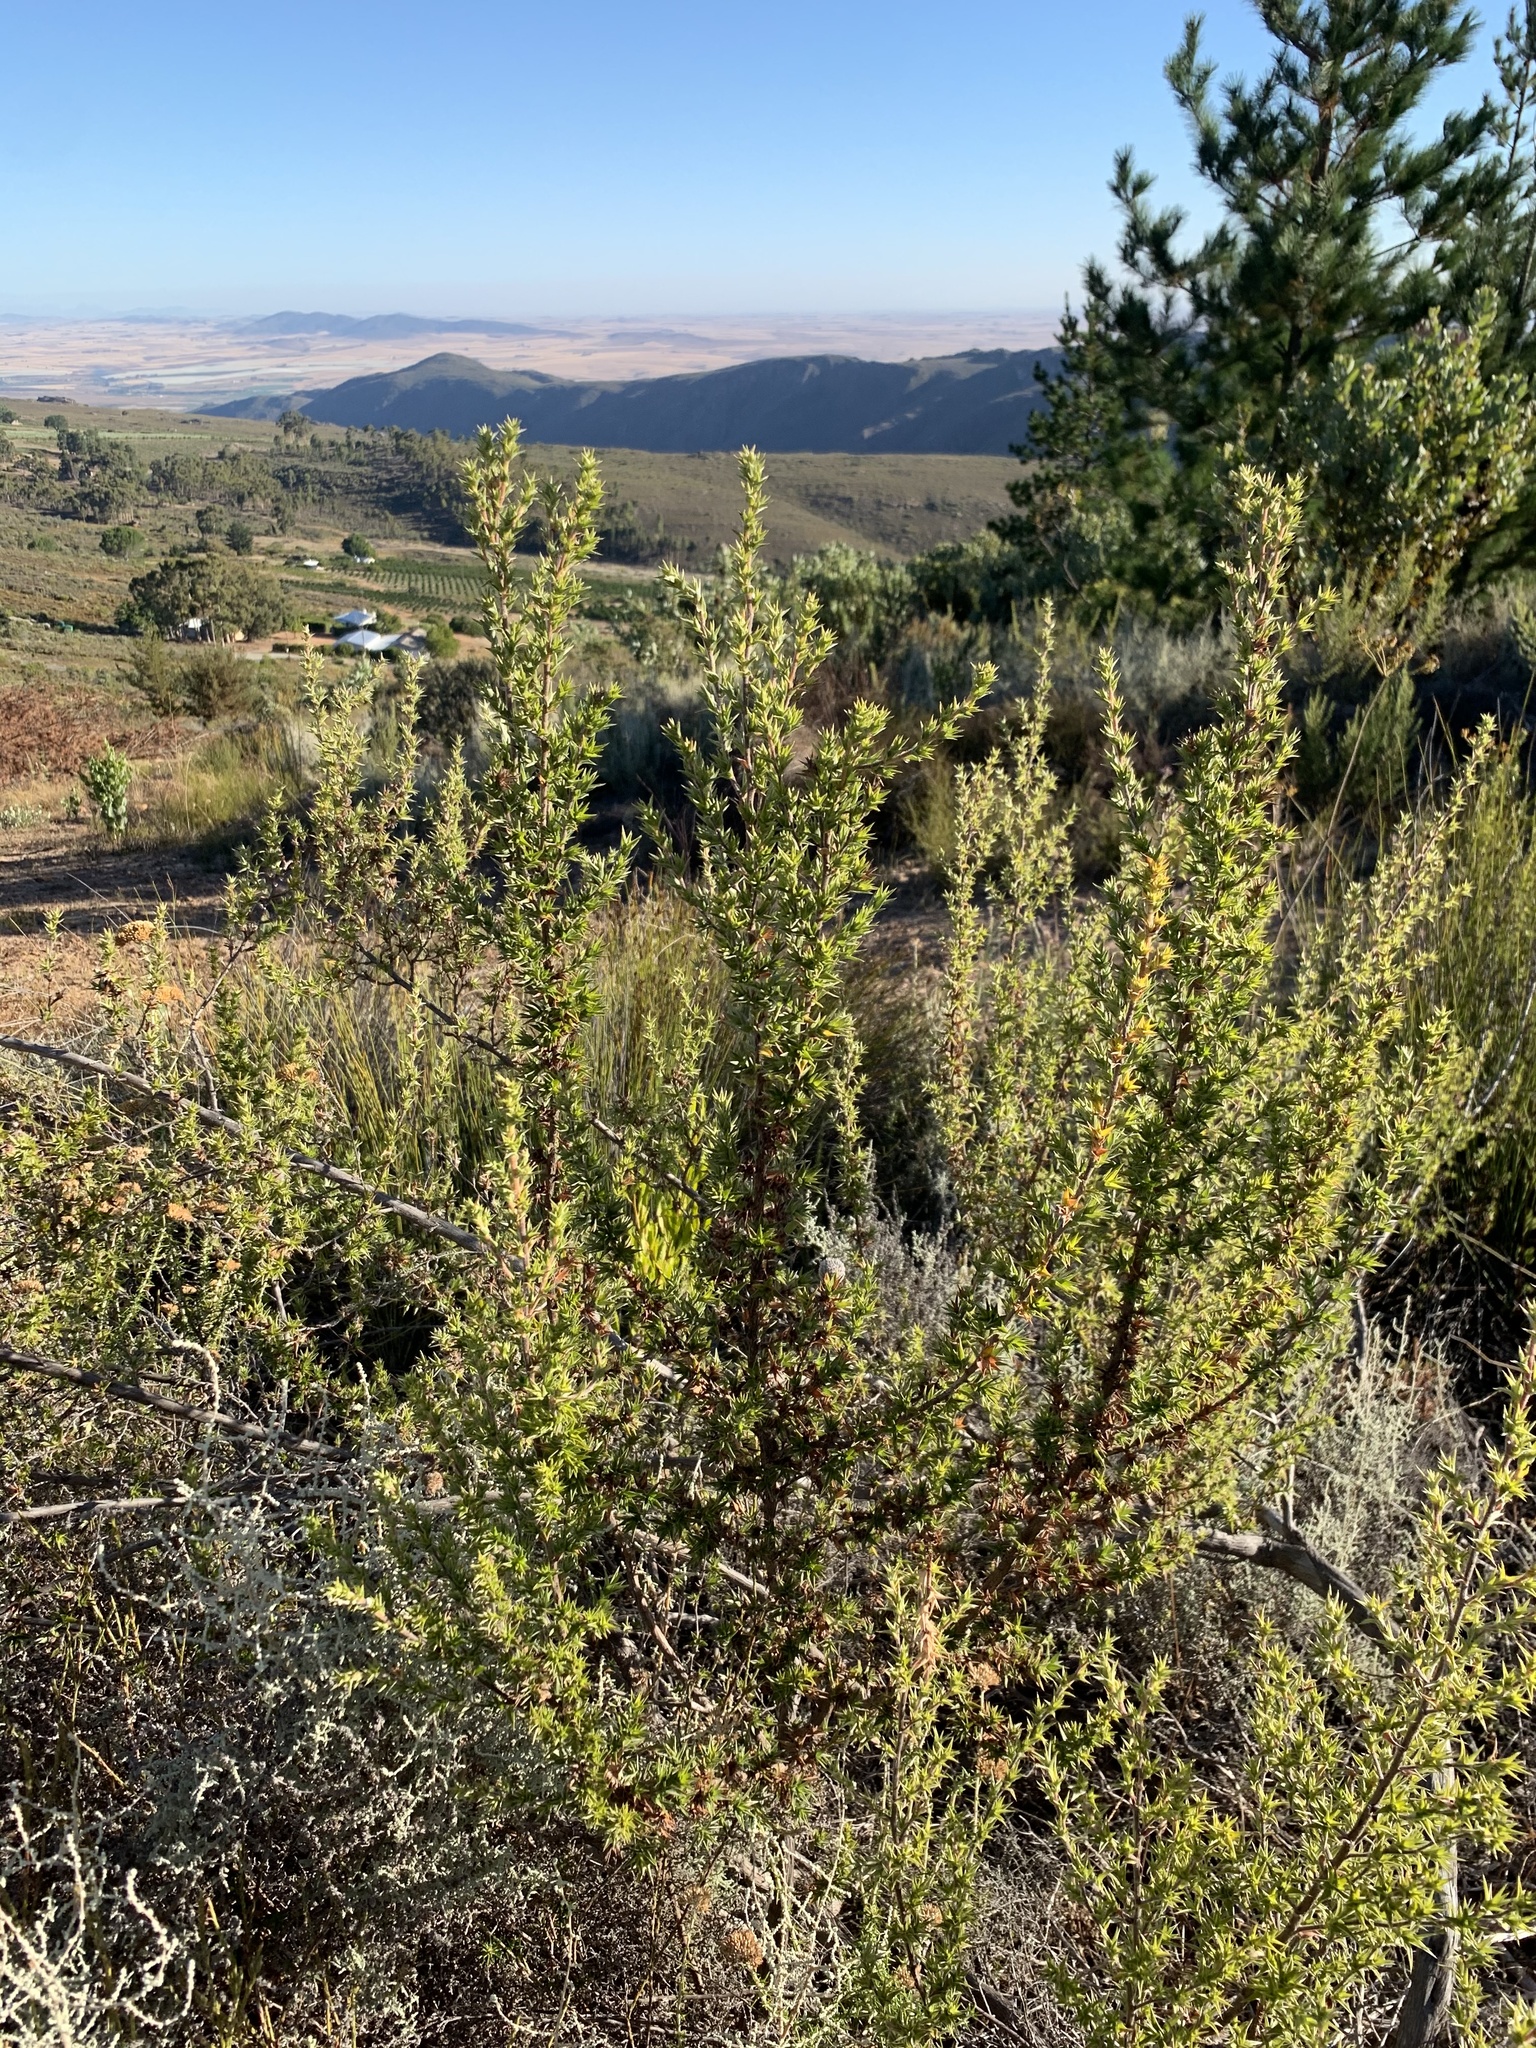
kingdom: Plantae
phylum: Tracheophyta
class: Magnoliopsida
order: Rosales
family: Rosaceae
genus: Cliffortia
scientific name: Cliffortia ruscifolia
